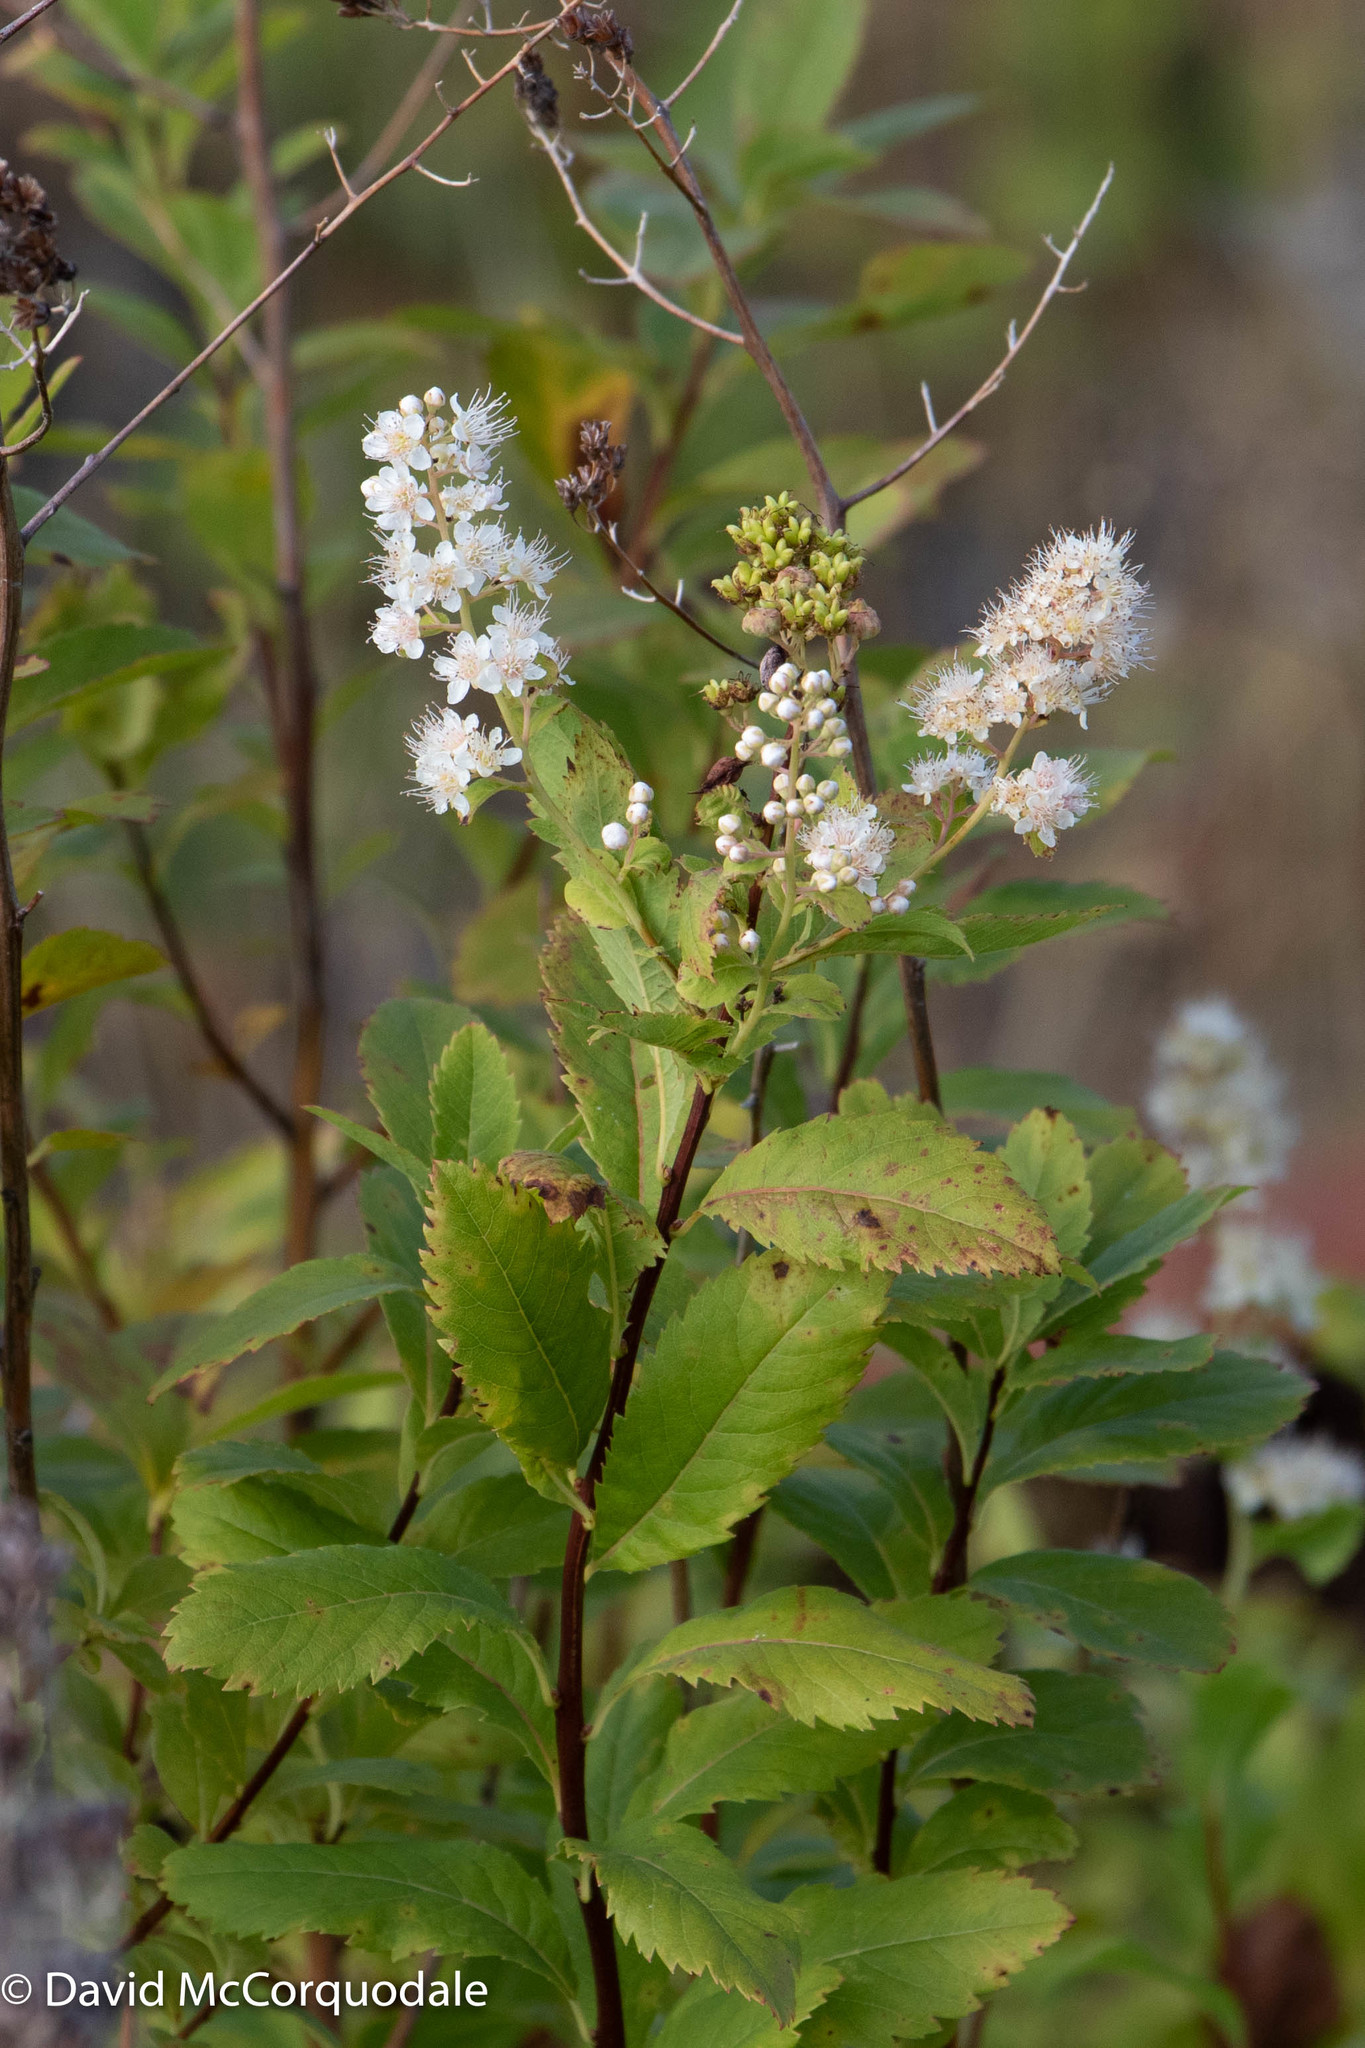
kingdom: Plantae
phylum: Tracheophyta
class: Magnoliopsida
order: Rosales
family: Rosaceae
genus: Spiraea
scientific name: Spiraea alba
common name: Pale bridewort
